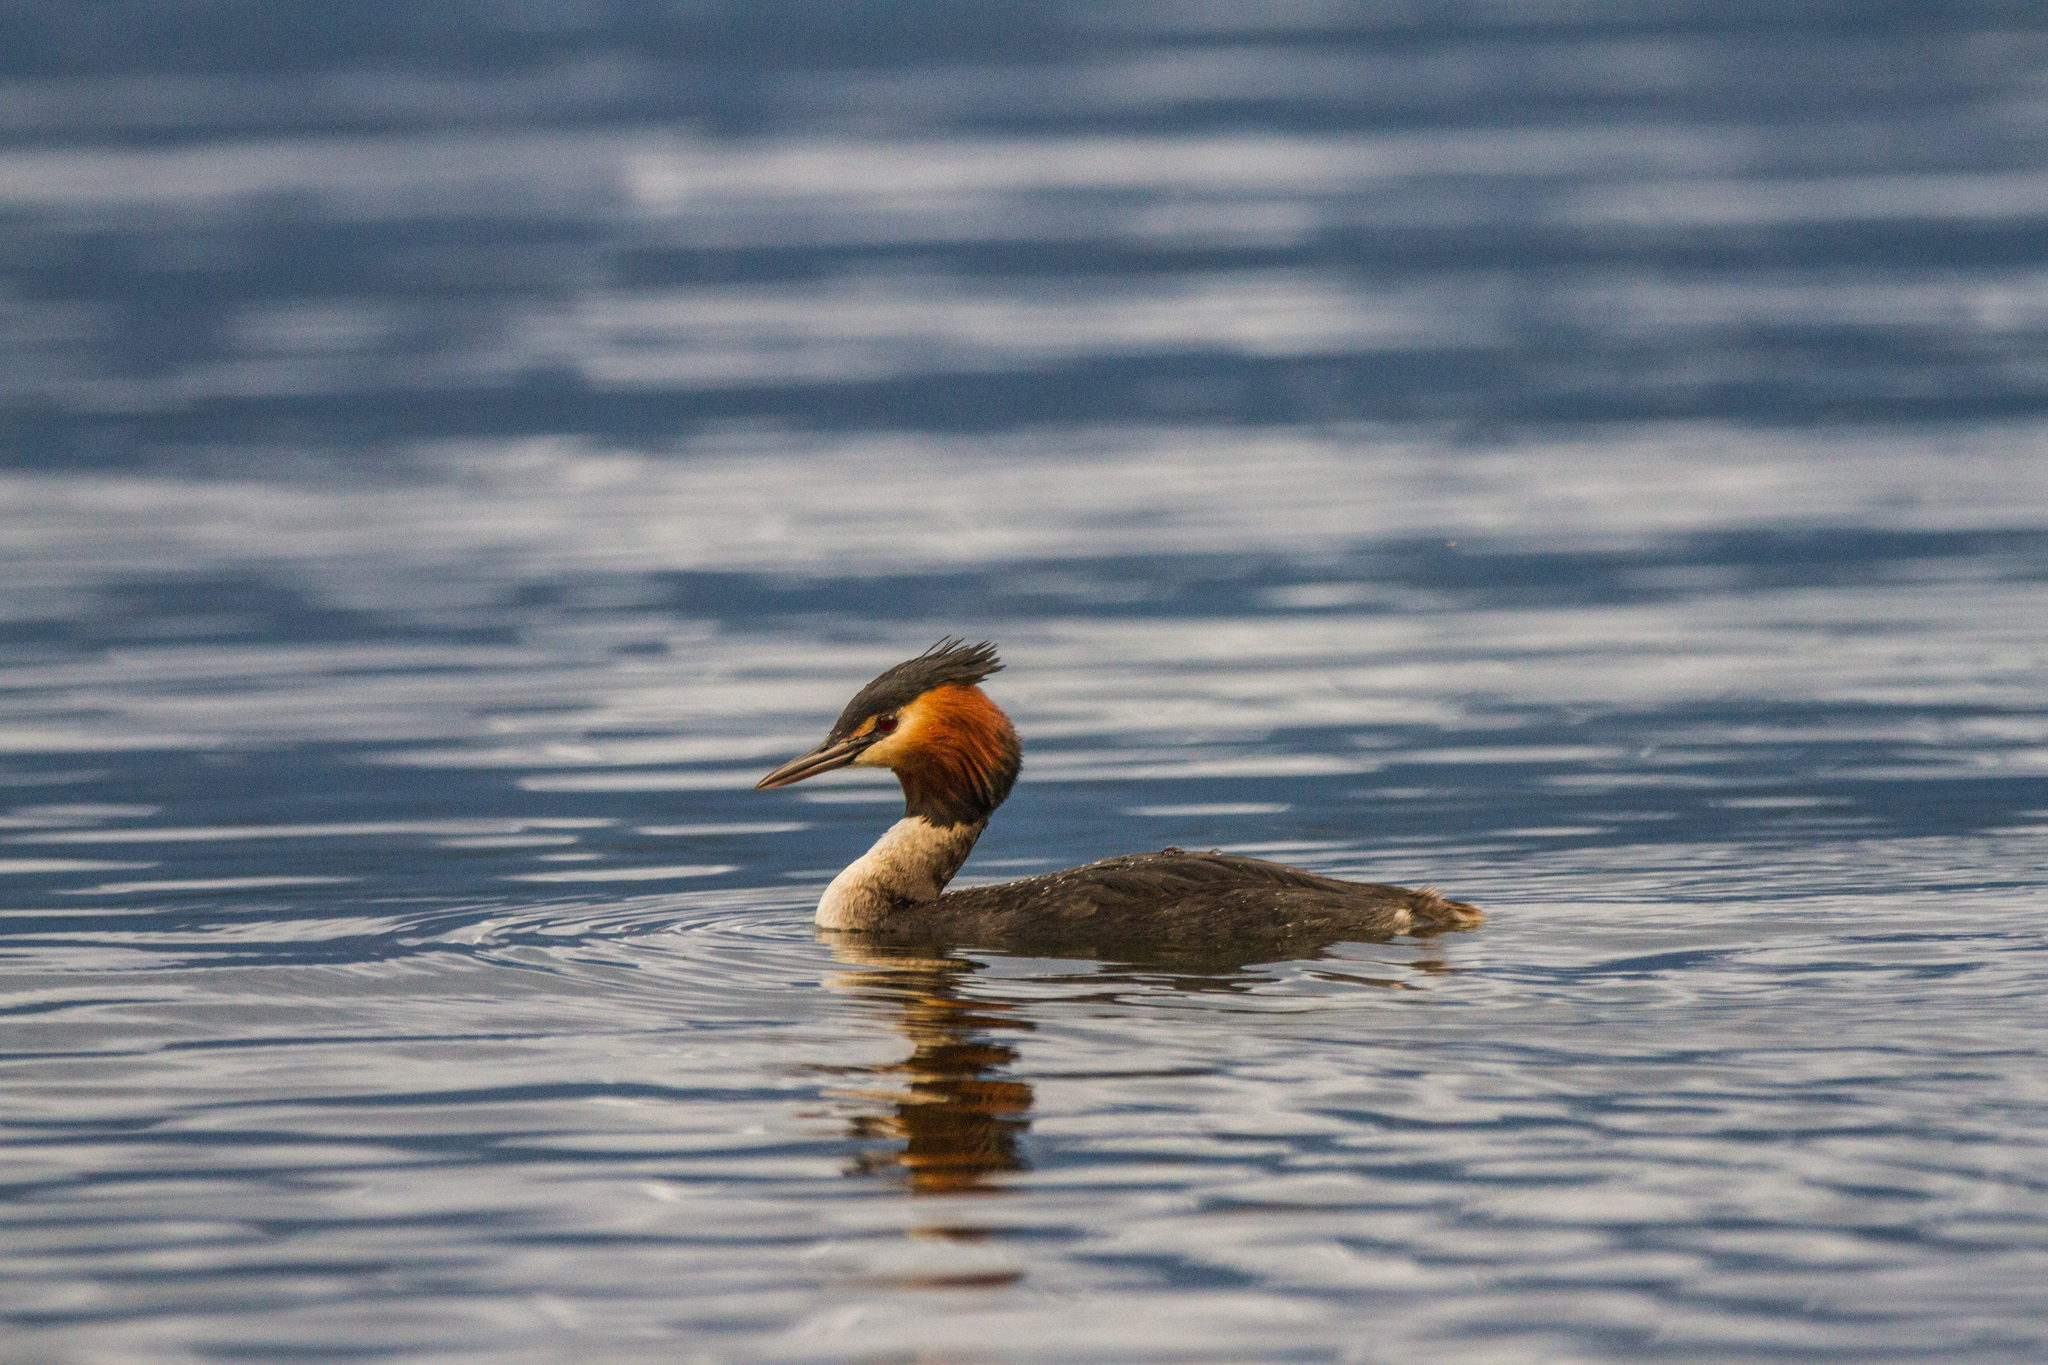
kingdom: Animalia
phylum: Chordata
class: Aves
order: Podicipediformes
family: Podicipedidae
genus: Podiceps
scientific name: Podiceps cristatus
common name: Great crested grebe
